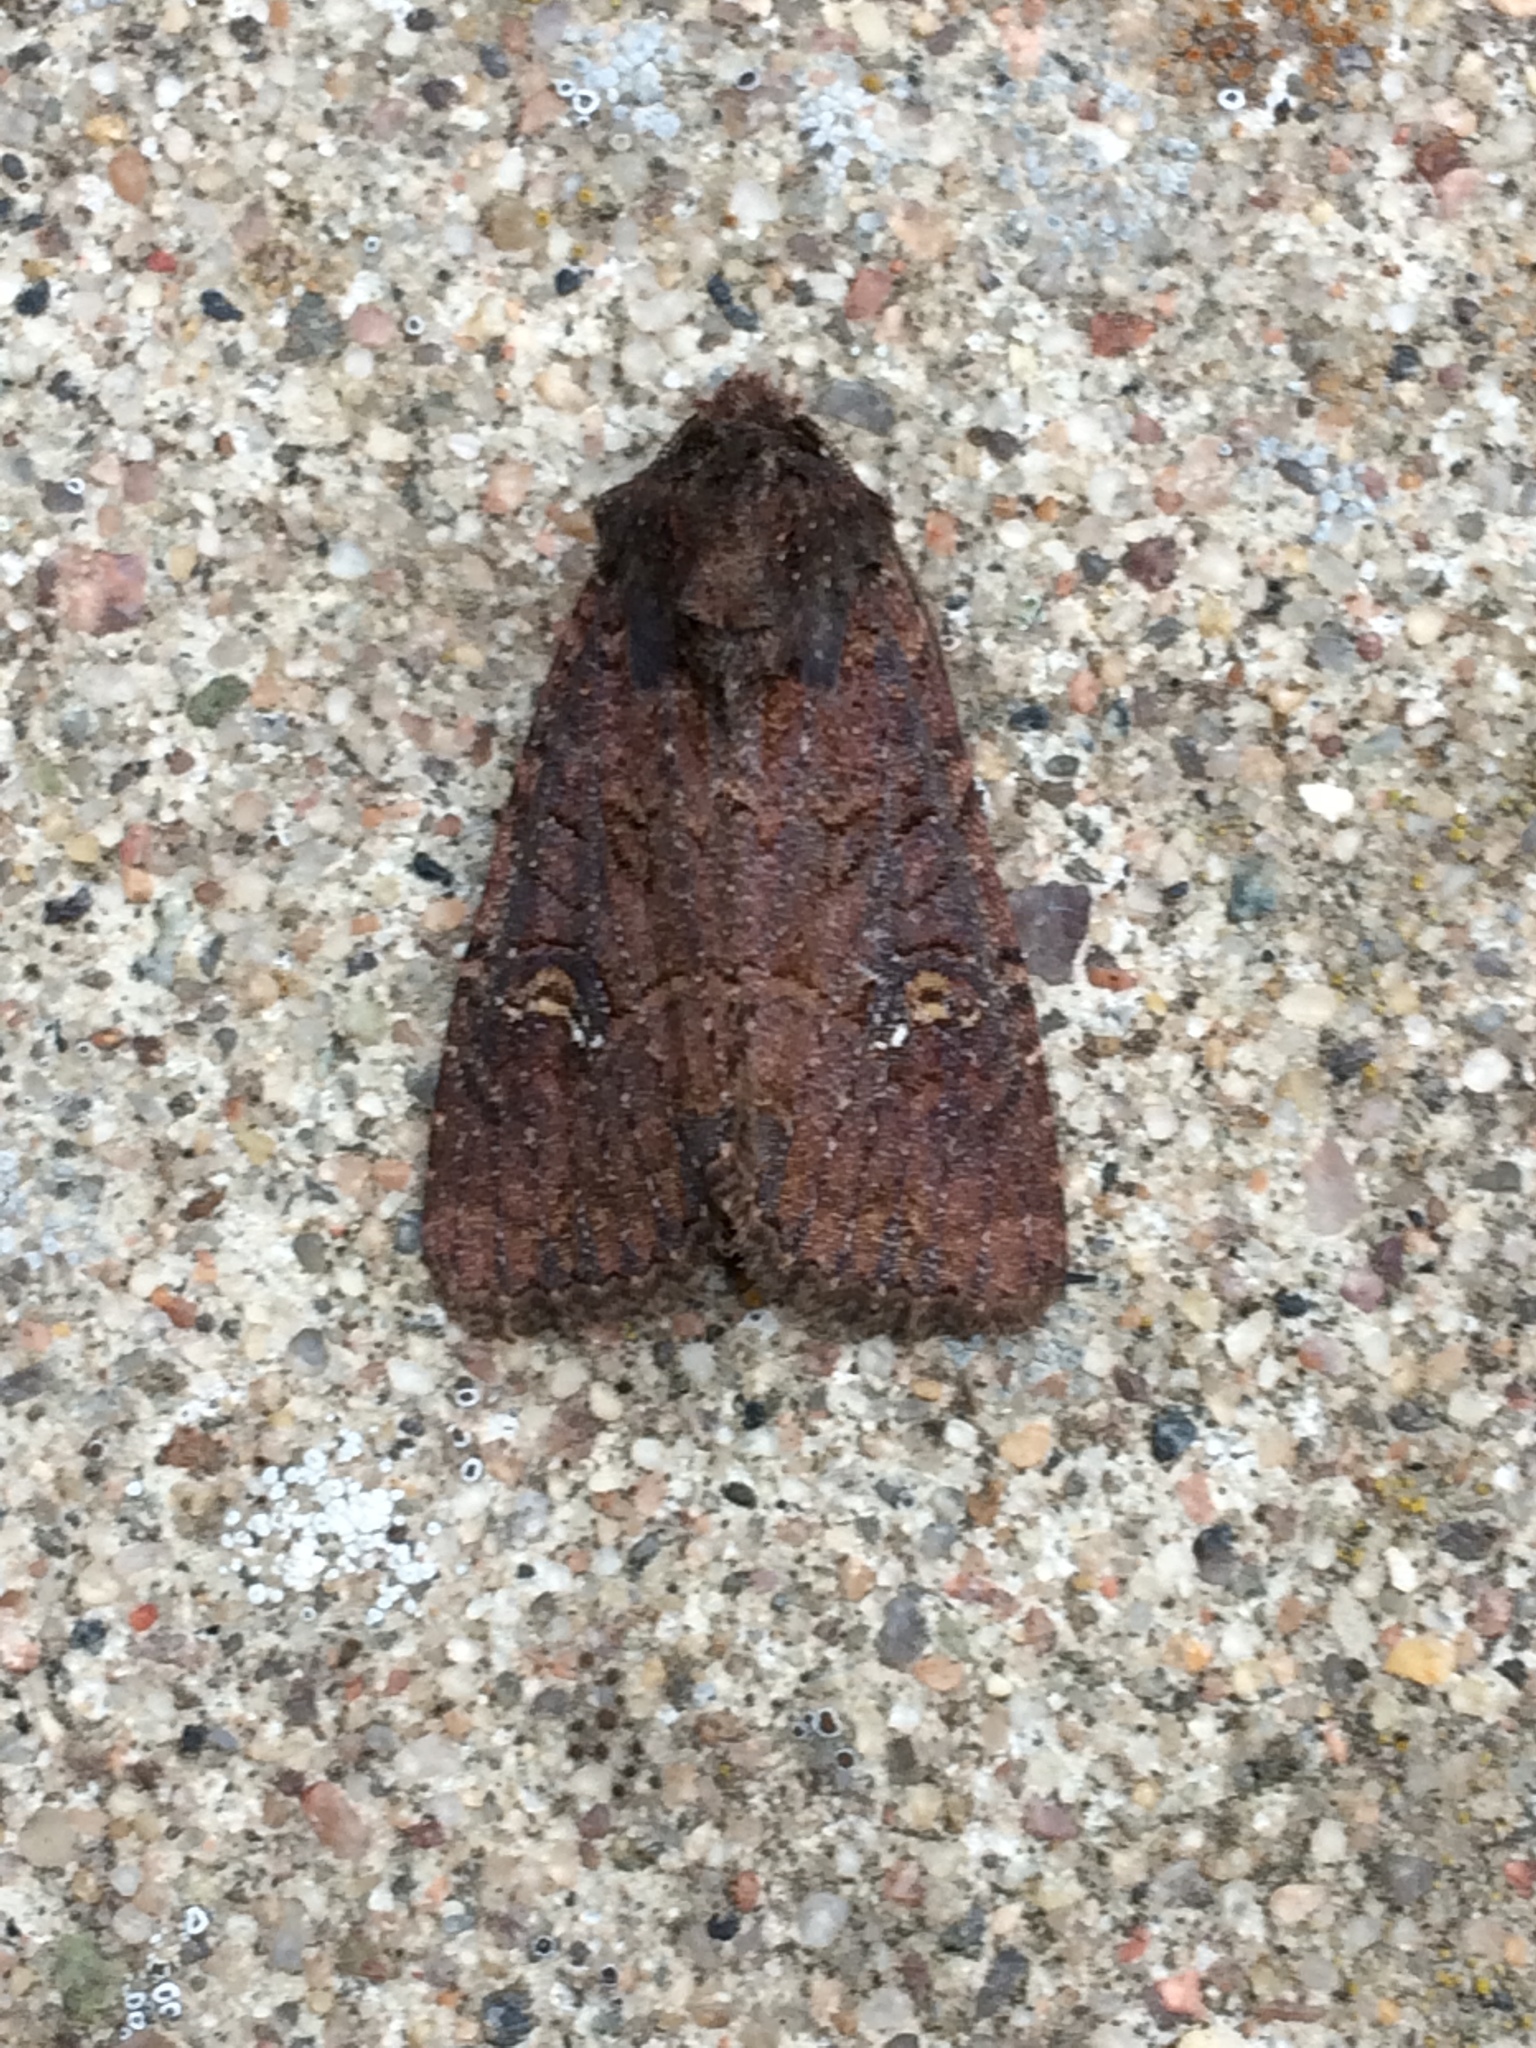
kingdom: Animalia
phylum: Arthropoda
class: Insecta
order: Lepidoptera
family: Noctuidae
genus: Mesapamea
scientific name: Mesapamea
